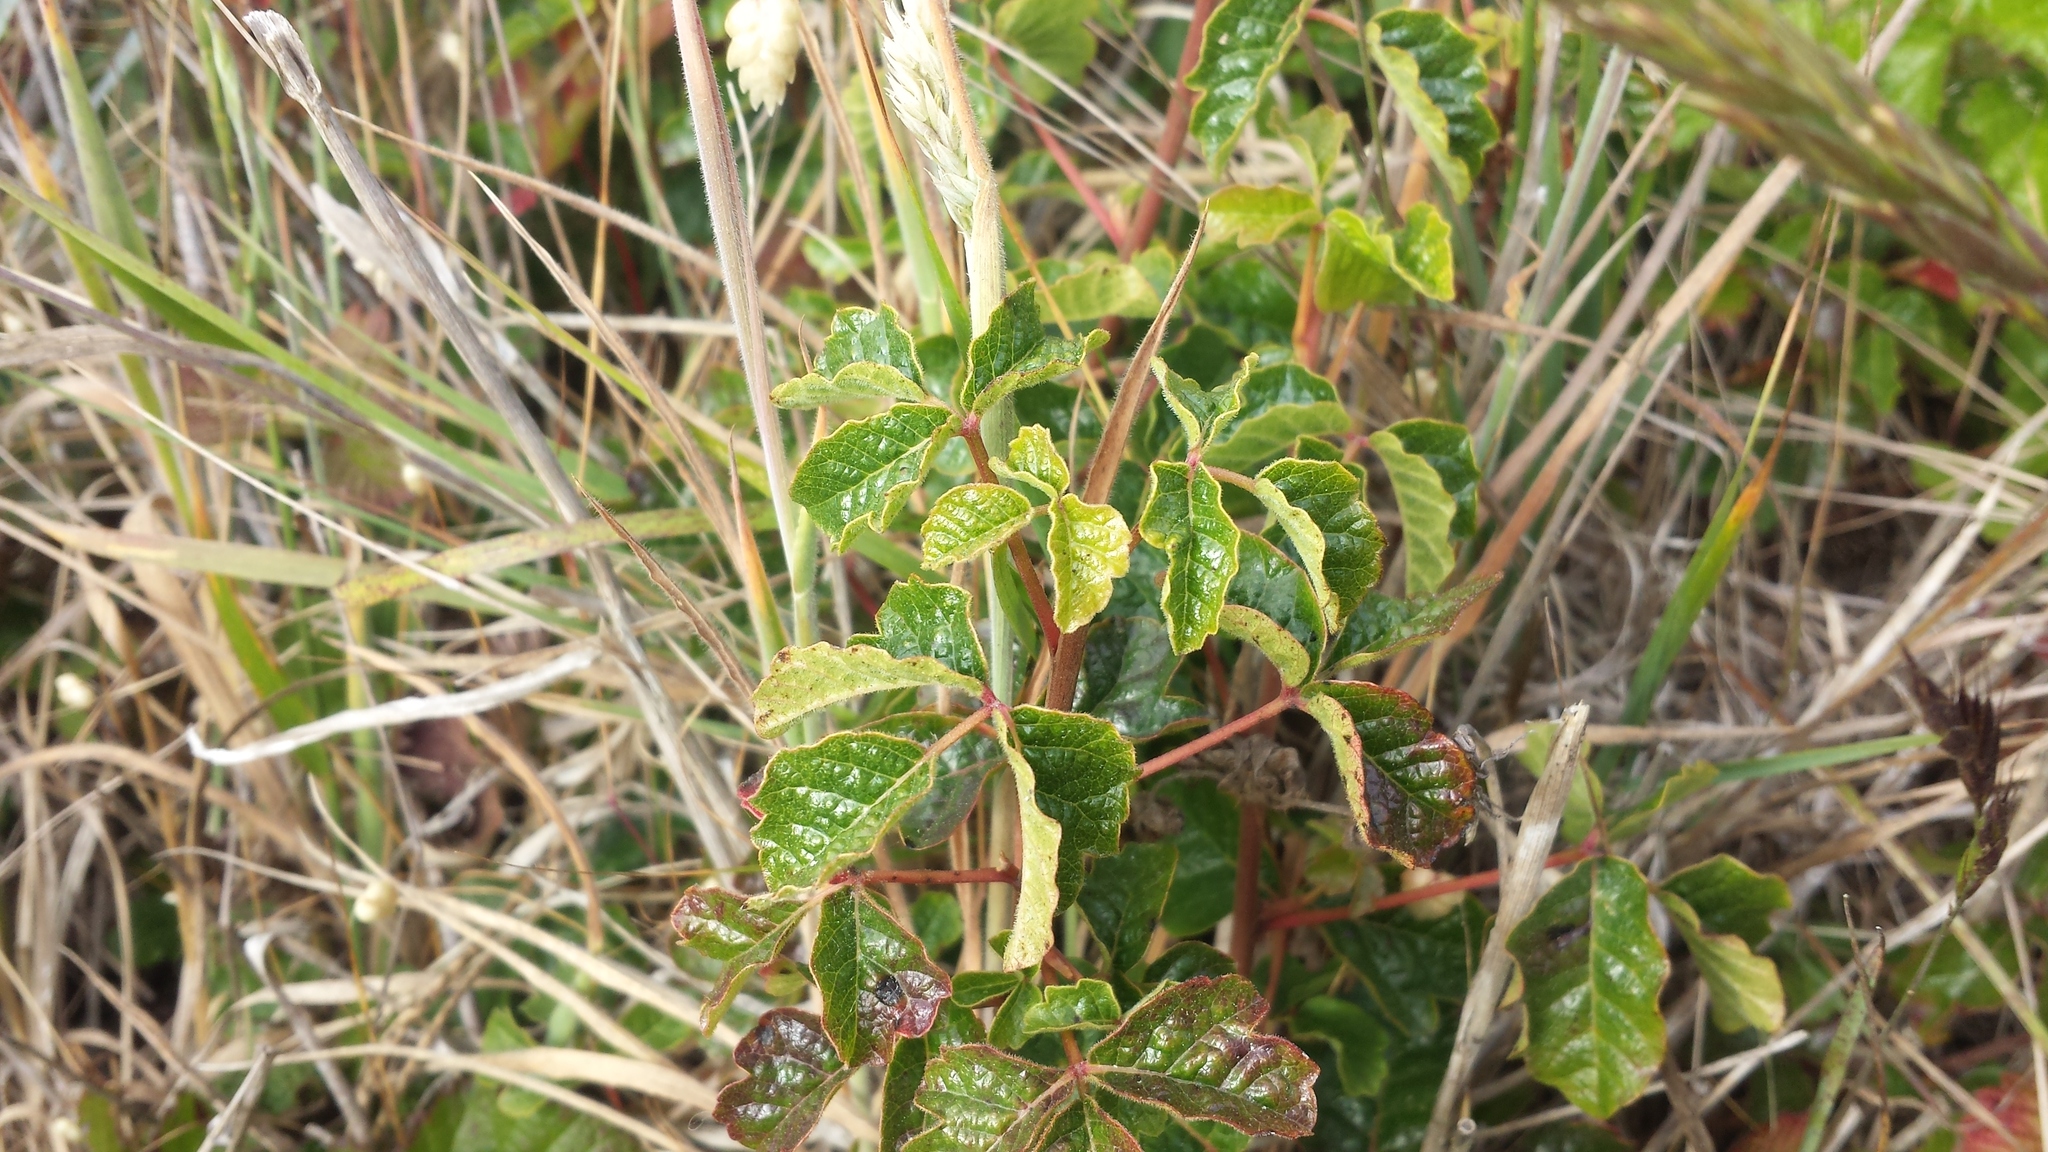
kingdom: Plantae
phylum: Tracheophyta
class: Magnoliopsida
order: Sapindales
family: Anacardiaceae
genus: Toxicodendron
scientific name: Toxicodendron diversilobum
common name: Pacific poison-oak
